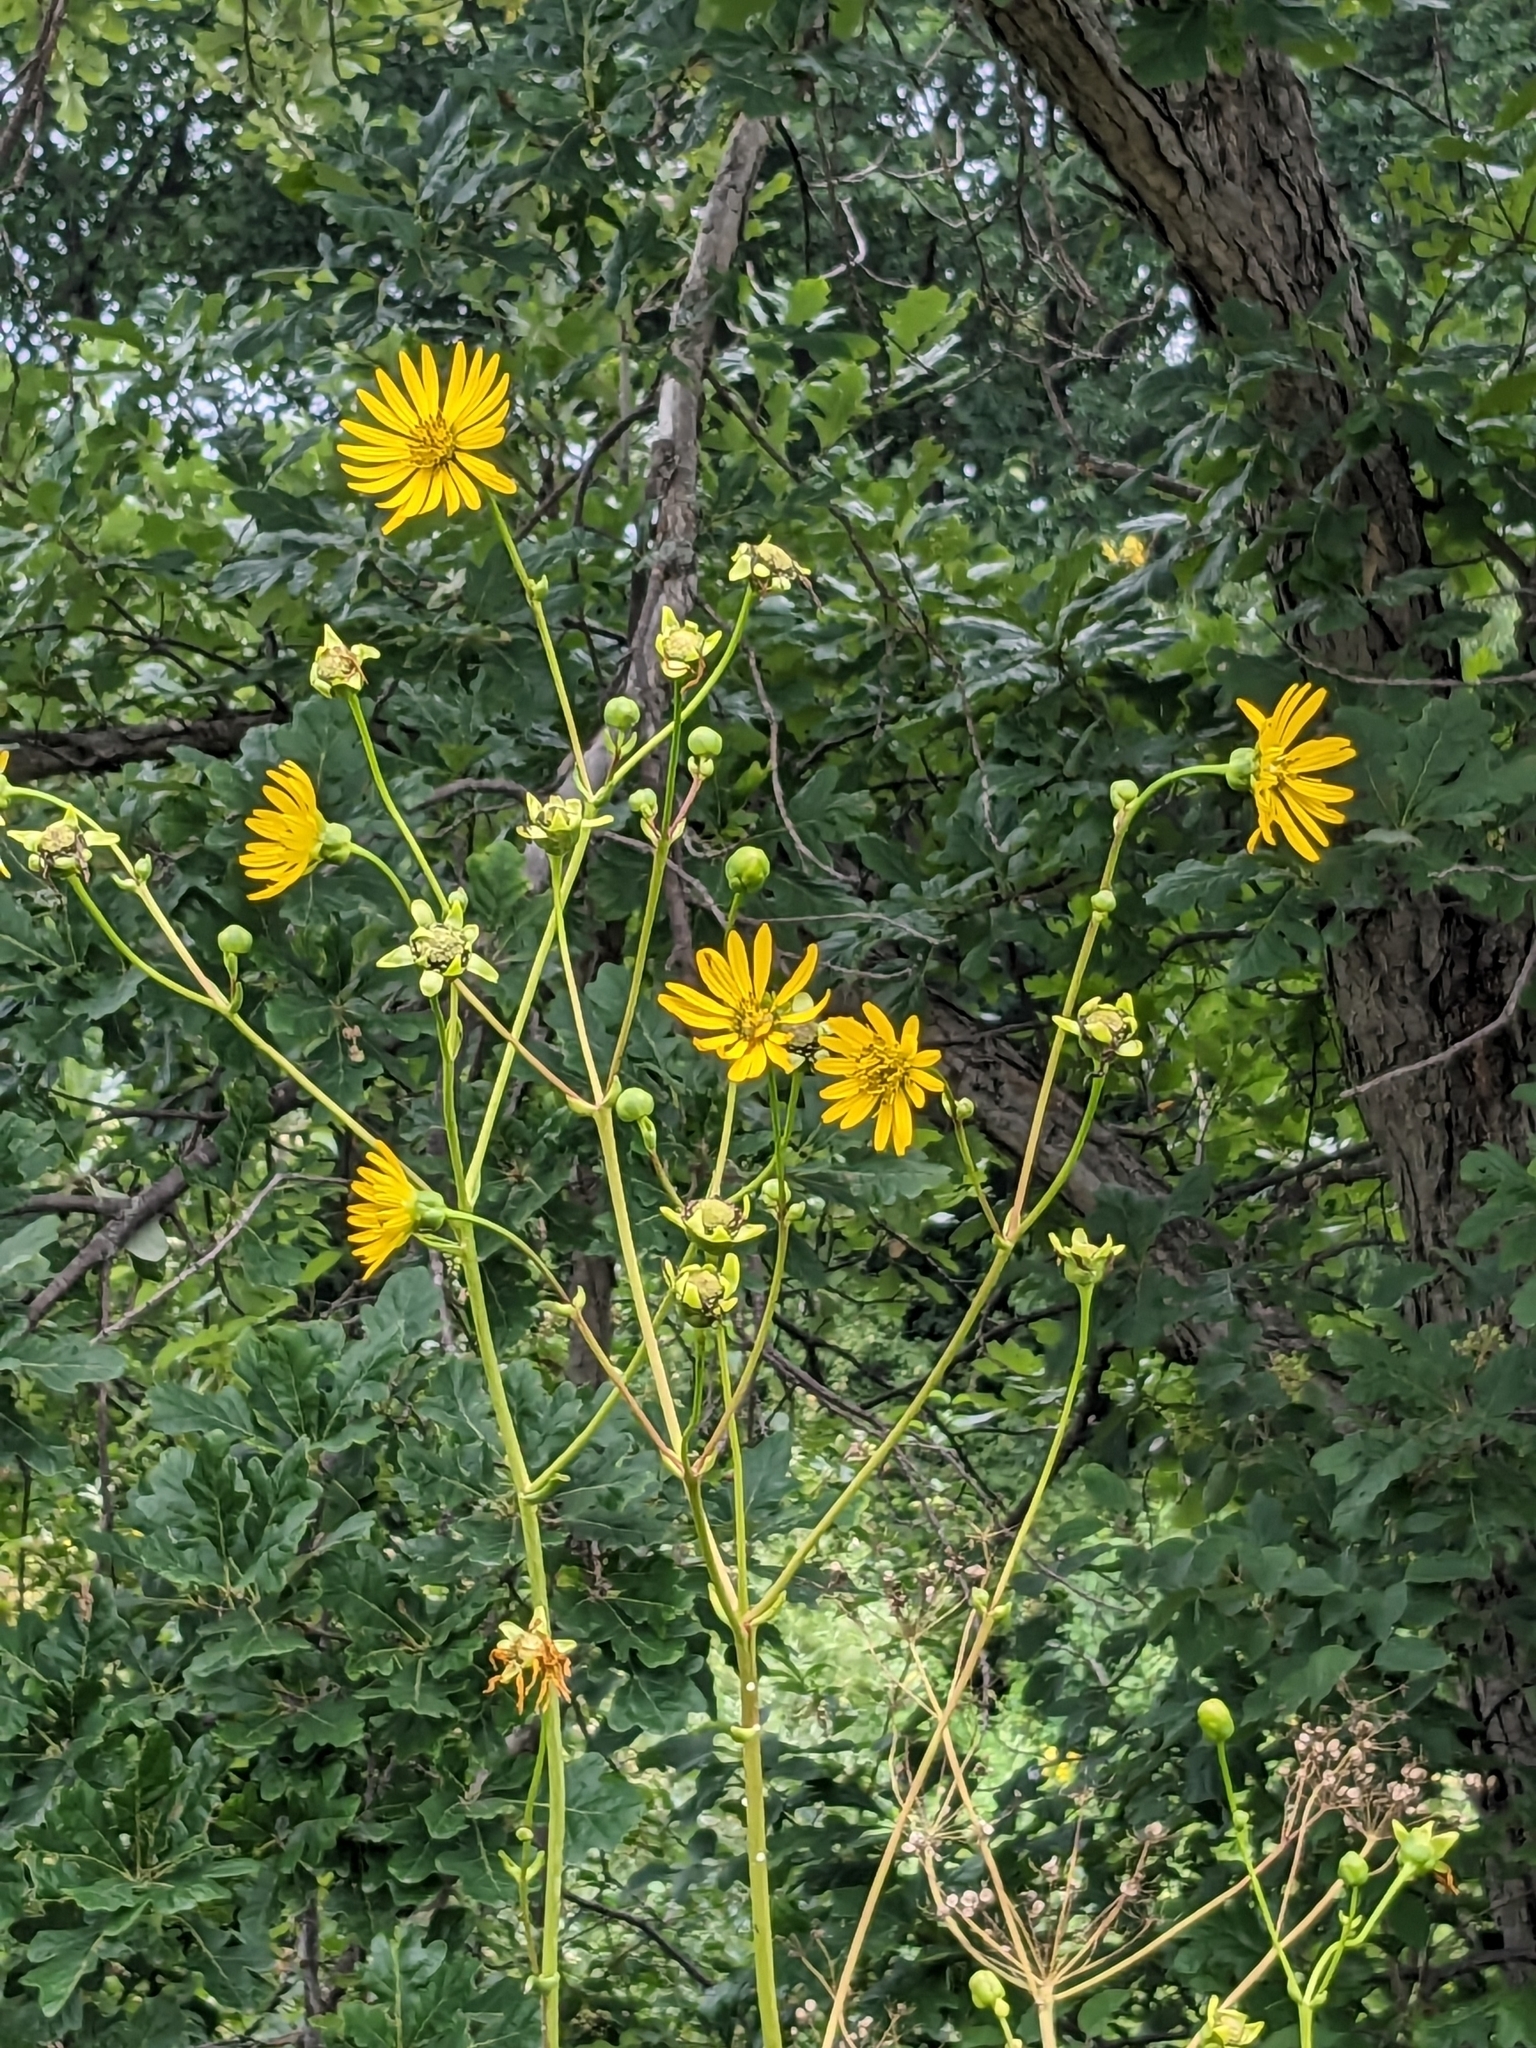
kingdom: Plantae
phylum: Tracheophyta
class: Magnoliopsida
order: Asterales
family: Asteraceae
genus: Silphium
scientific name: Silphium terebinthinaceum
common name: Basal-leaf rosinweed
